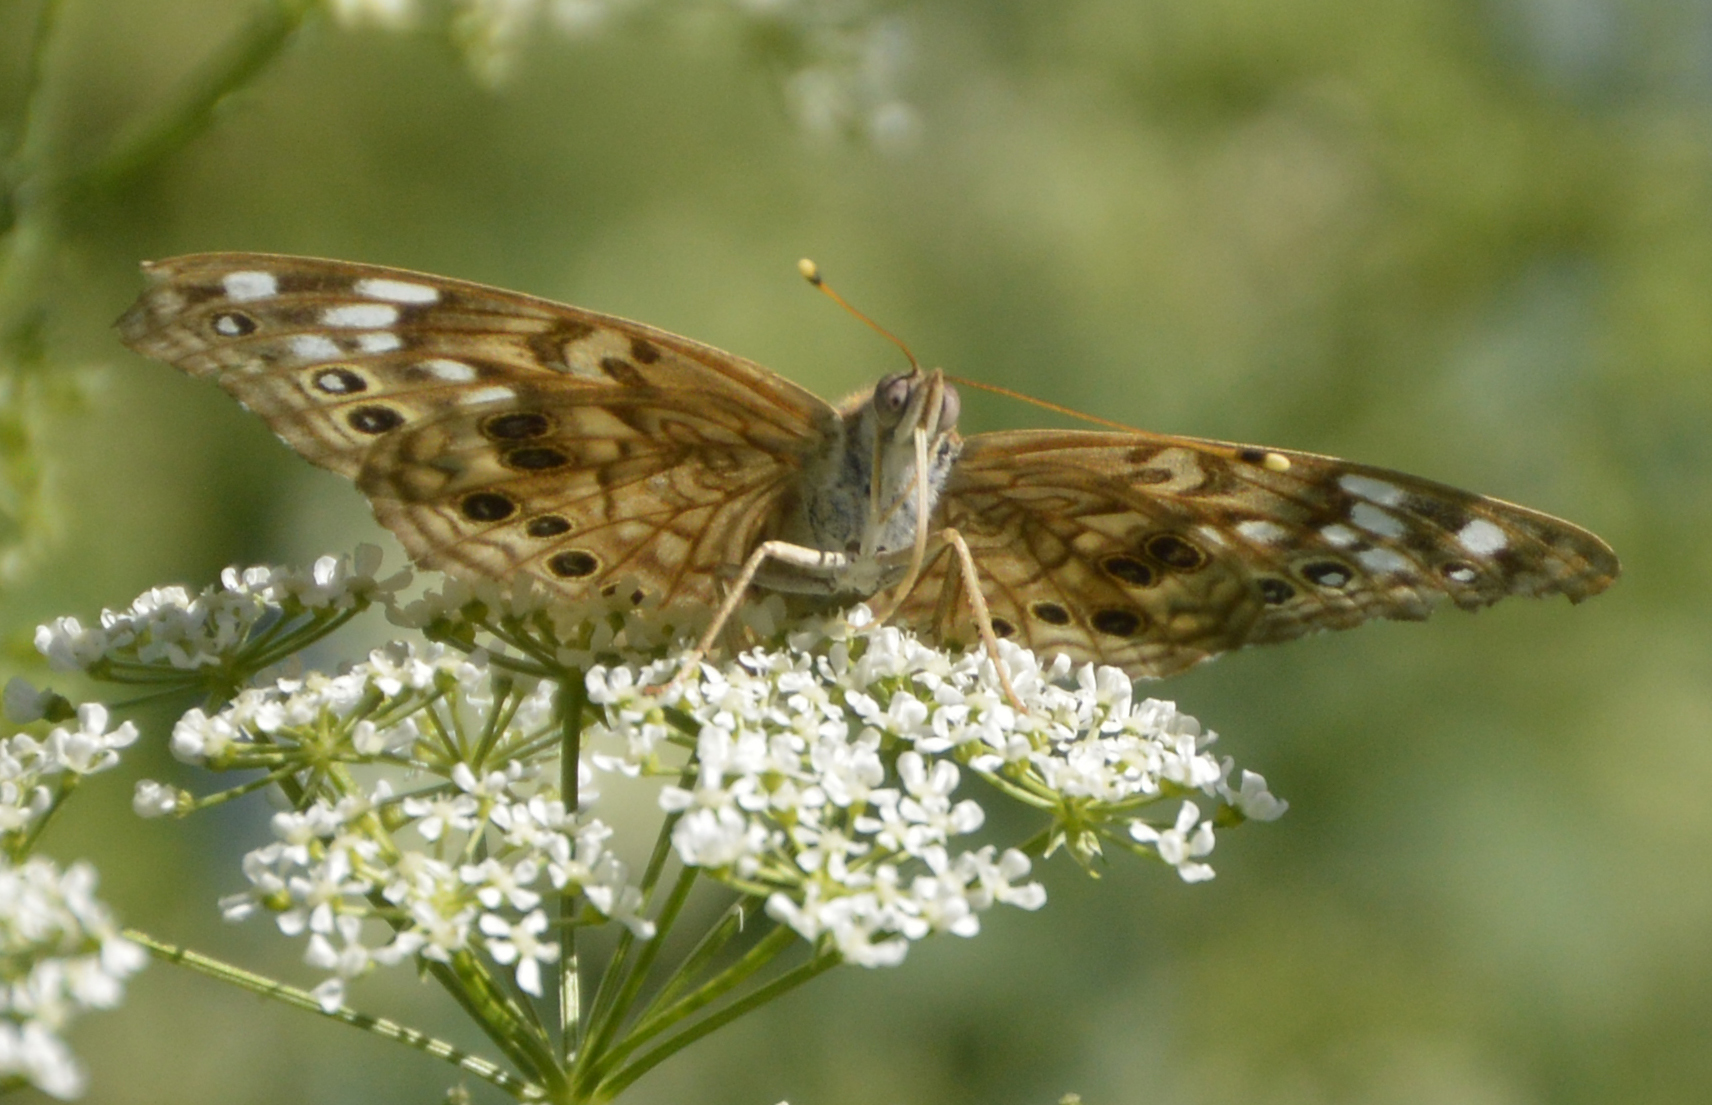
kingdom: Animalia
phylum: Arthropoda
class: Insecta
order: Lepidoptera
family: Nymphalidae
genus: Asterocampa
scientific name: Asterocampa celtis
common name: Hackberry emperor
